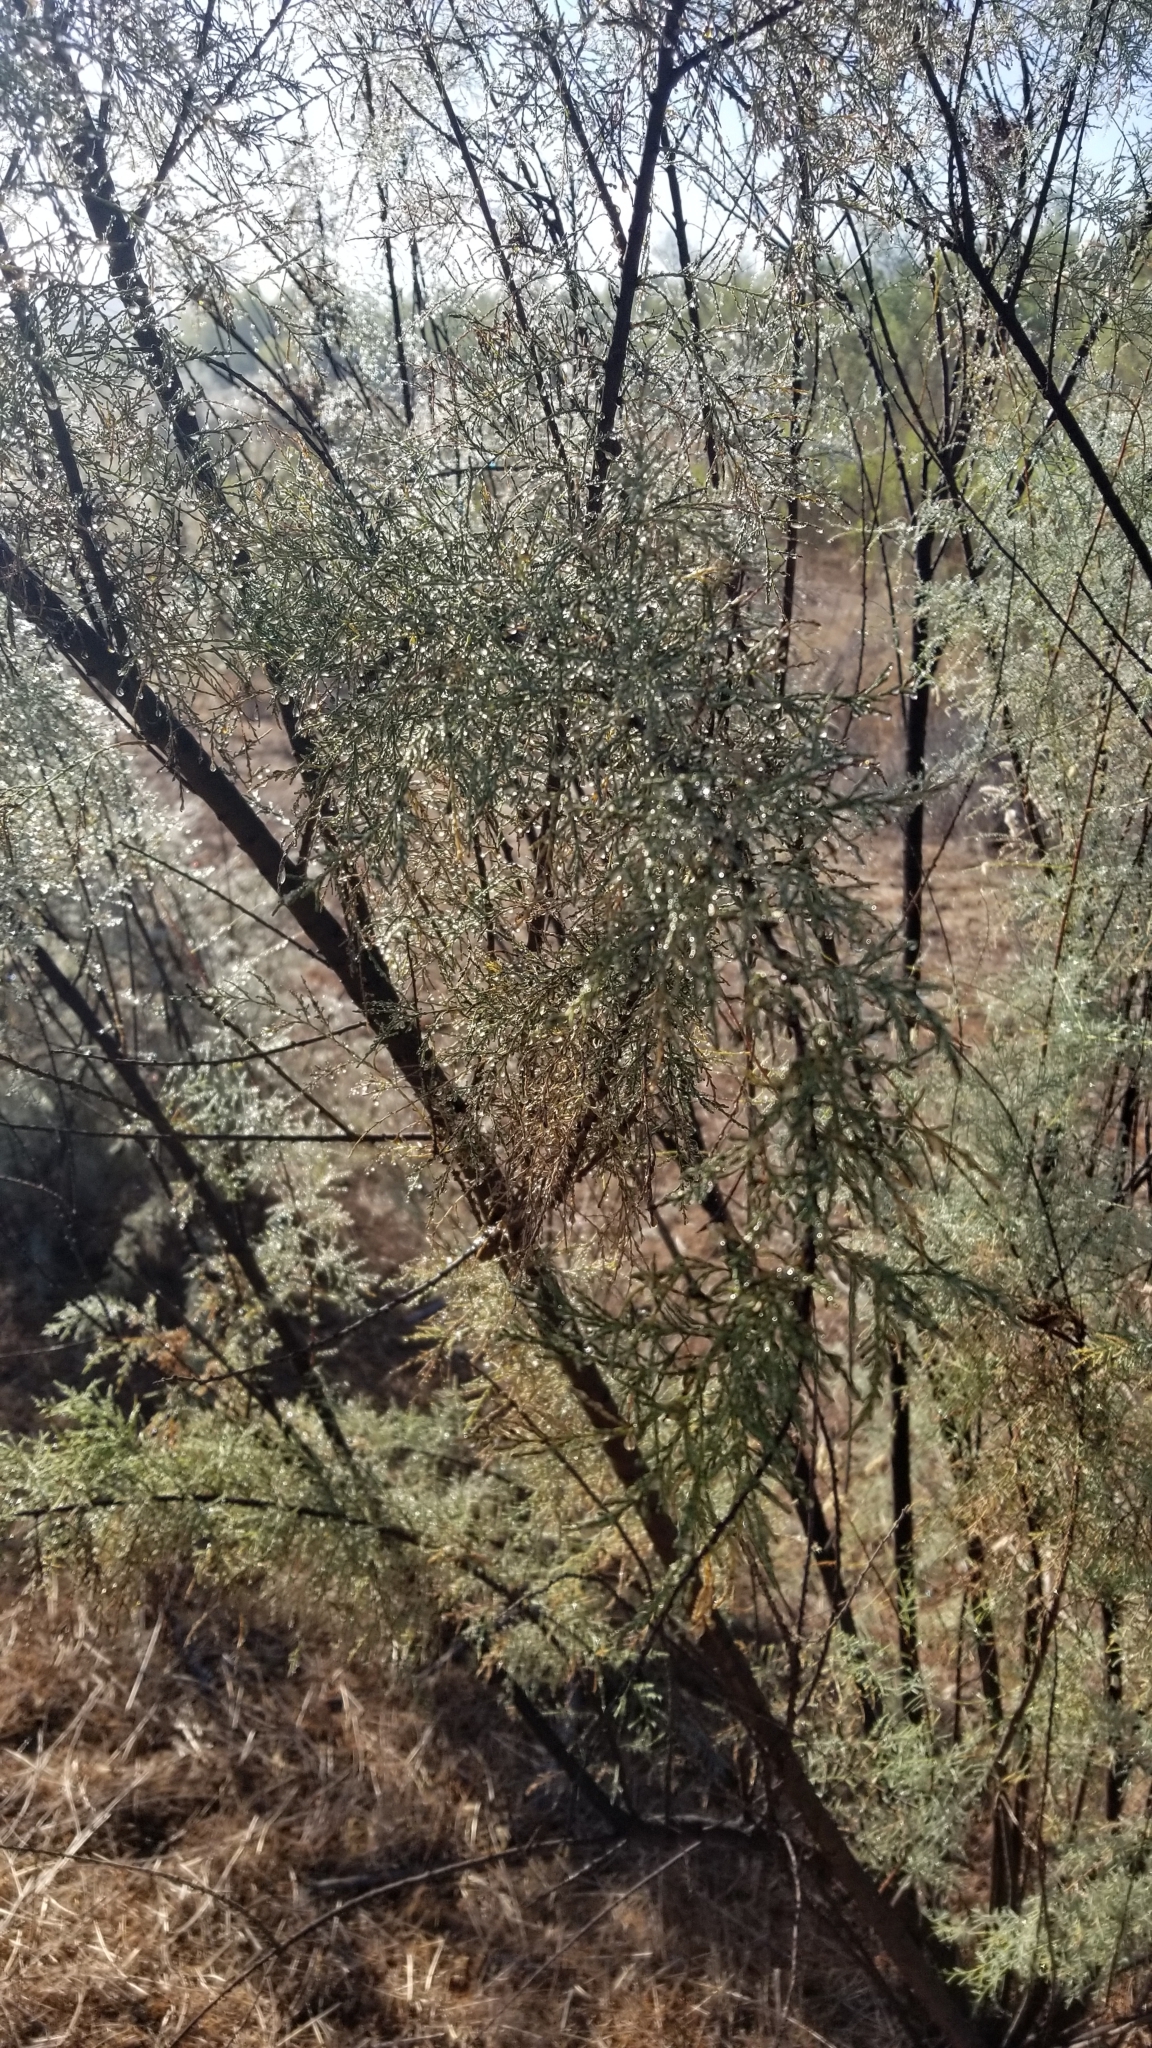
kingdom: Plantae
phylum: Tracheophyta
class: Magnoliopsida
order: Caryophyllales
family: Tamaricaceae
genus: Tamarix
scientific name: Tamarix ramosissima
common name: Pink tamarisk
